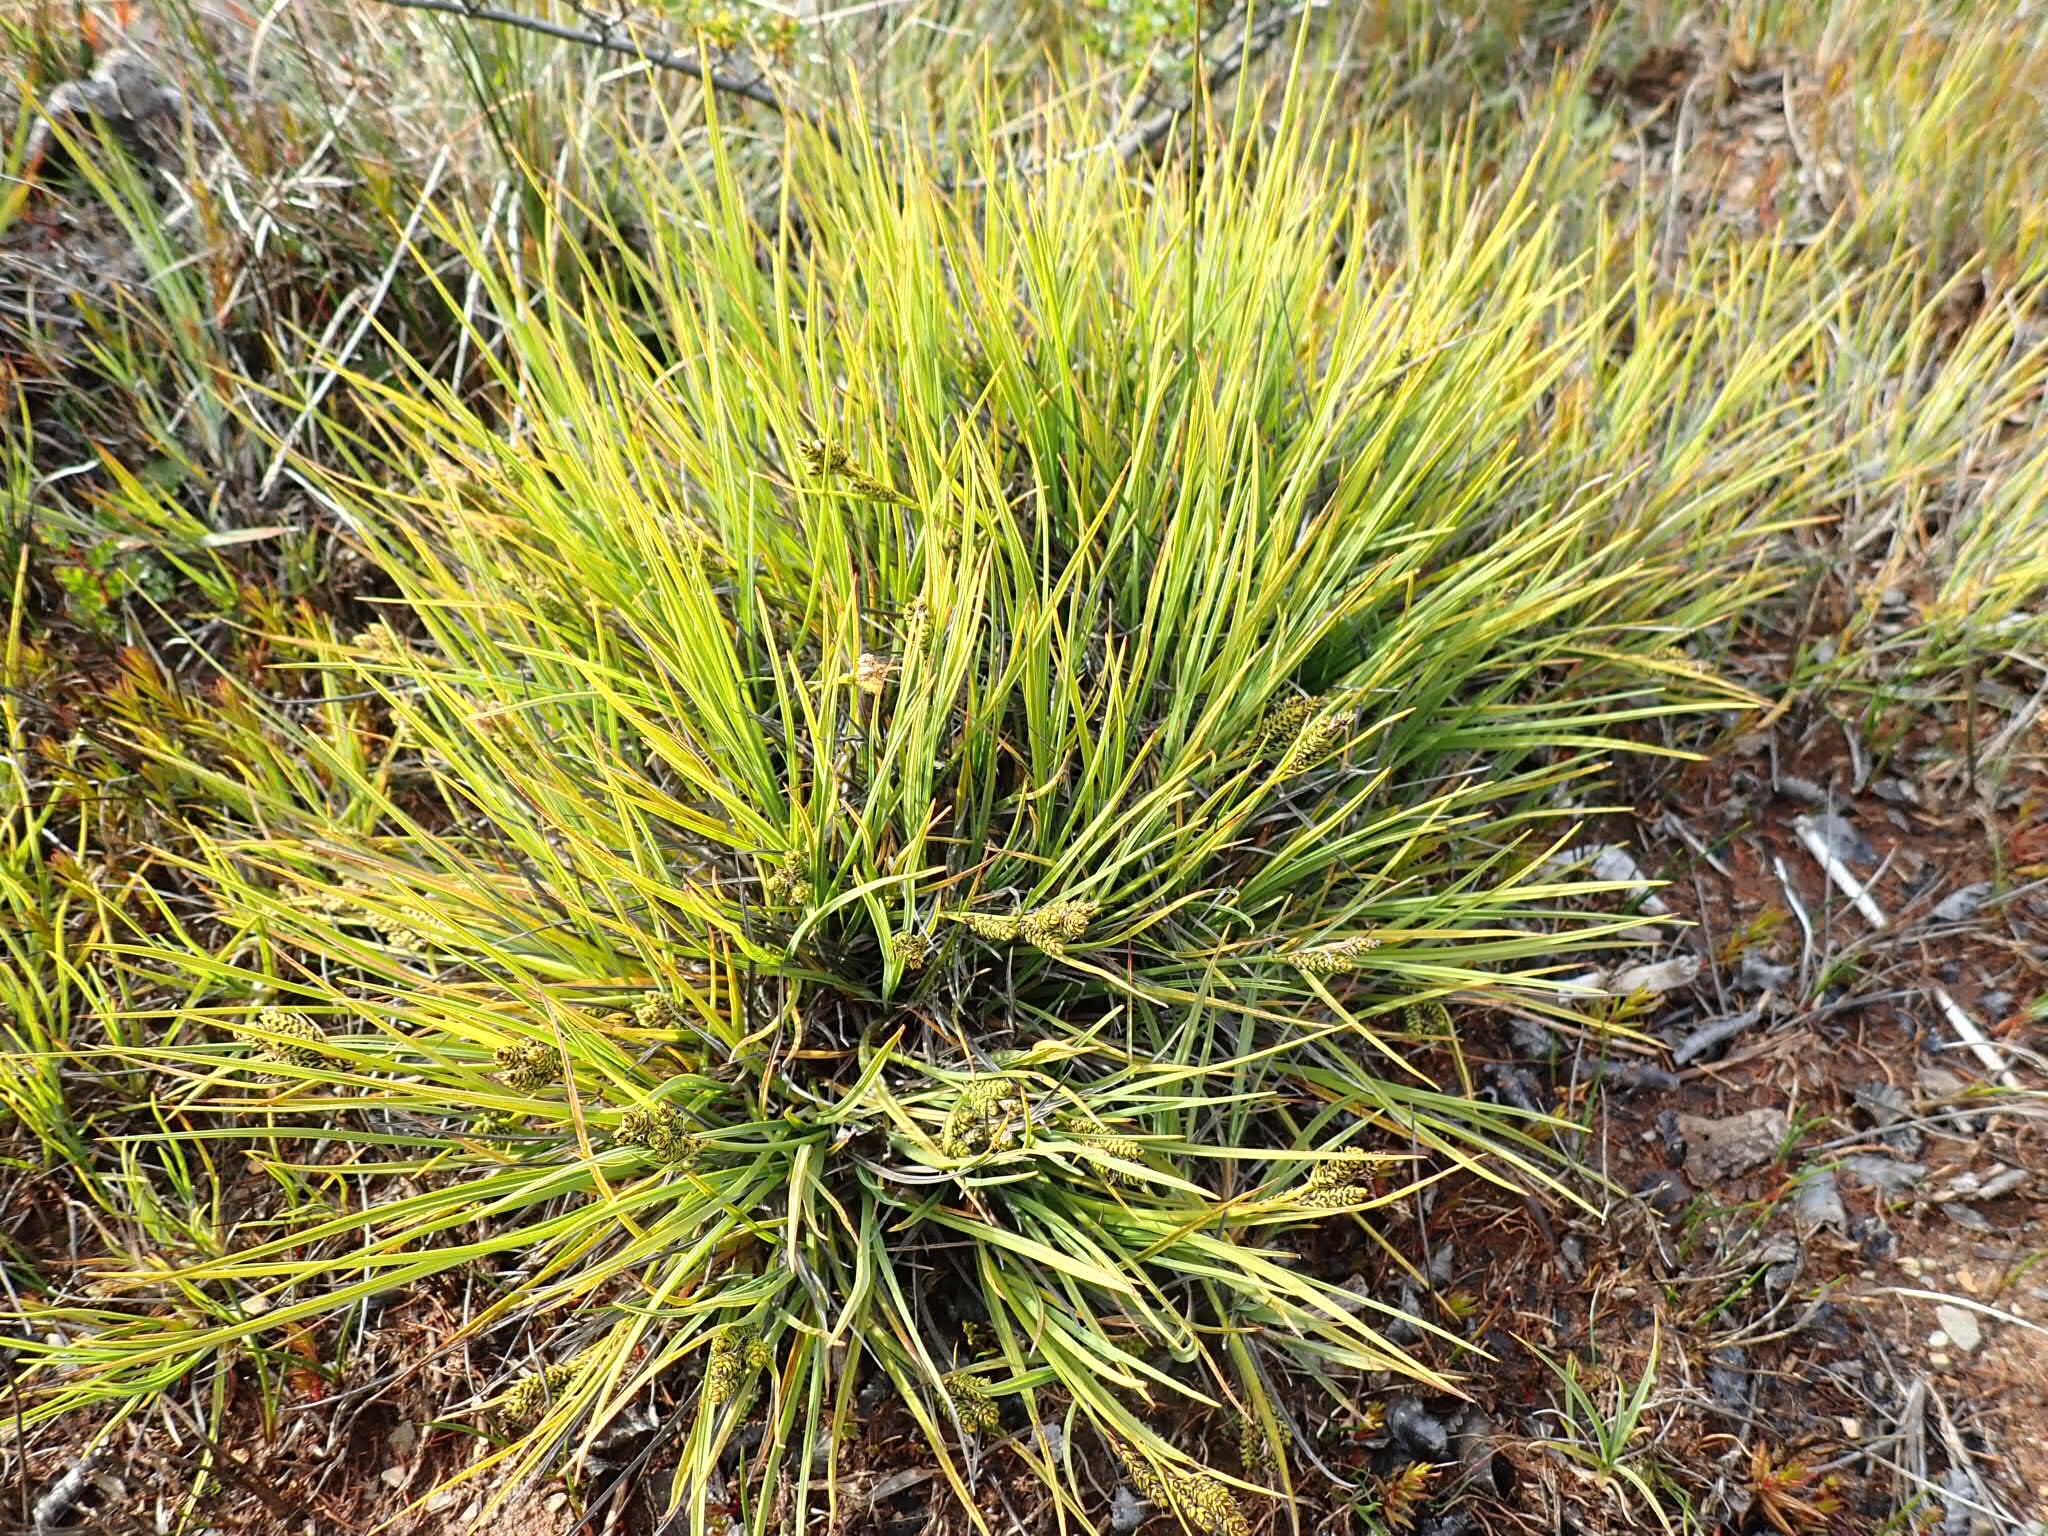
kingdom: Plantae
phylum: Tracheophyta
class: Liliopsida
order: Poales
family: Cyperaceae
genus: Carex
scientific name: Carex decidua
